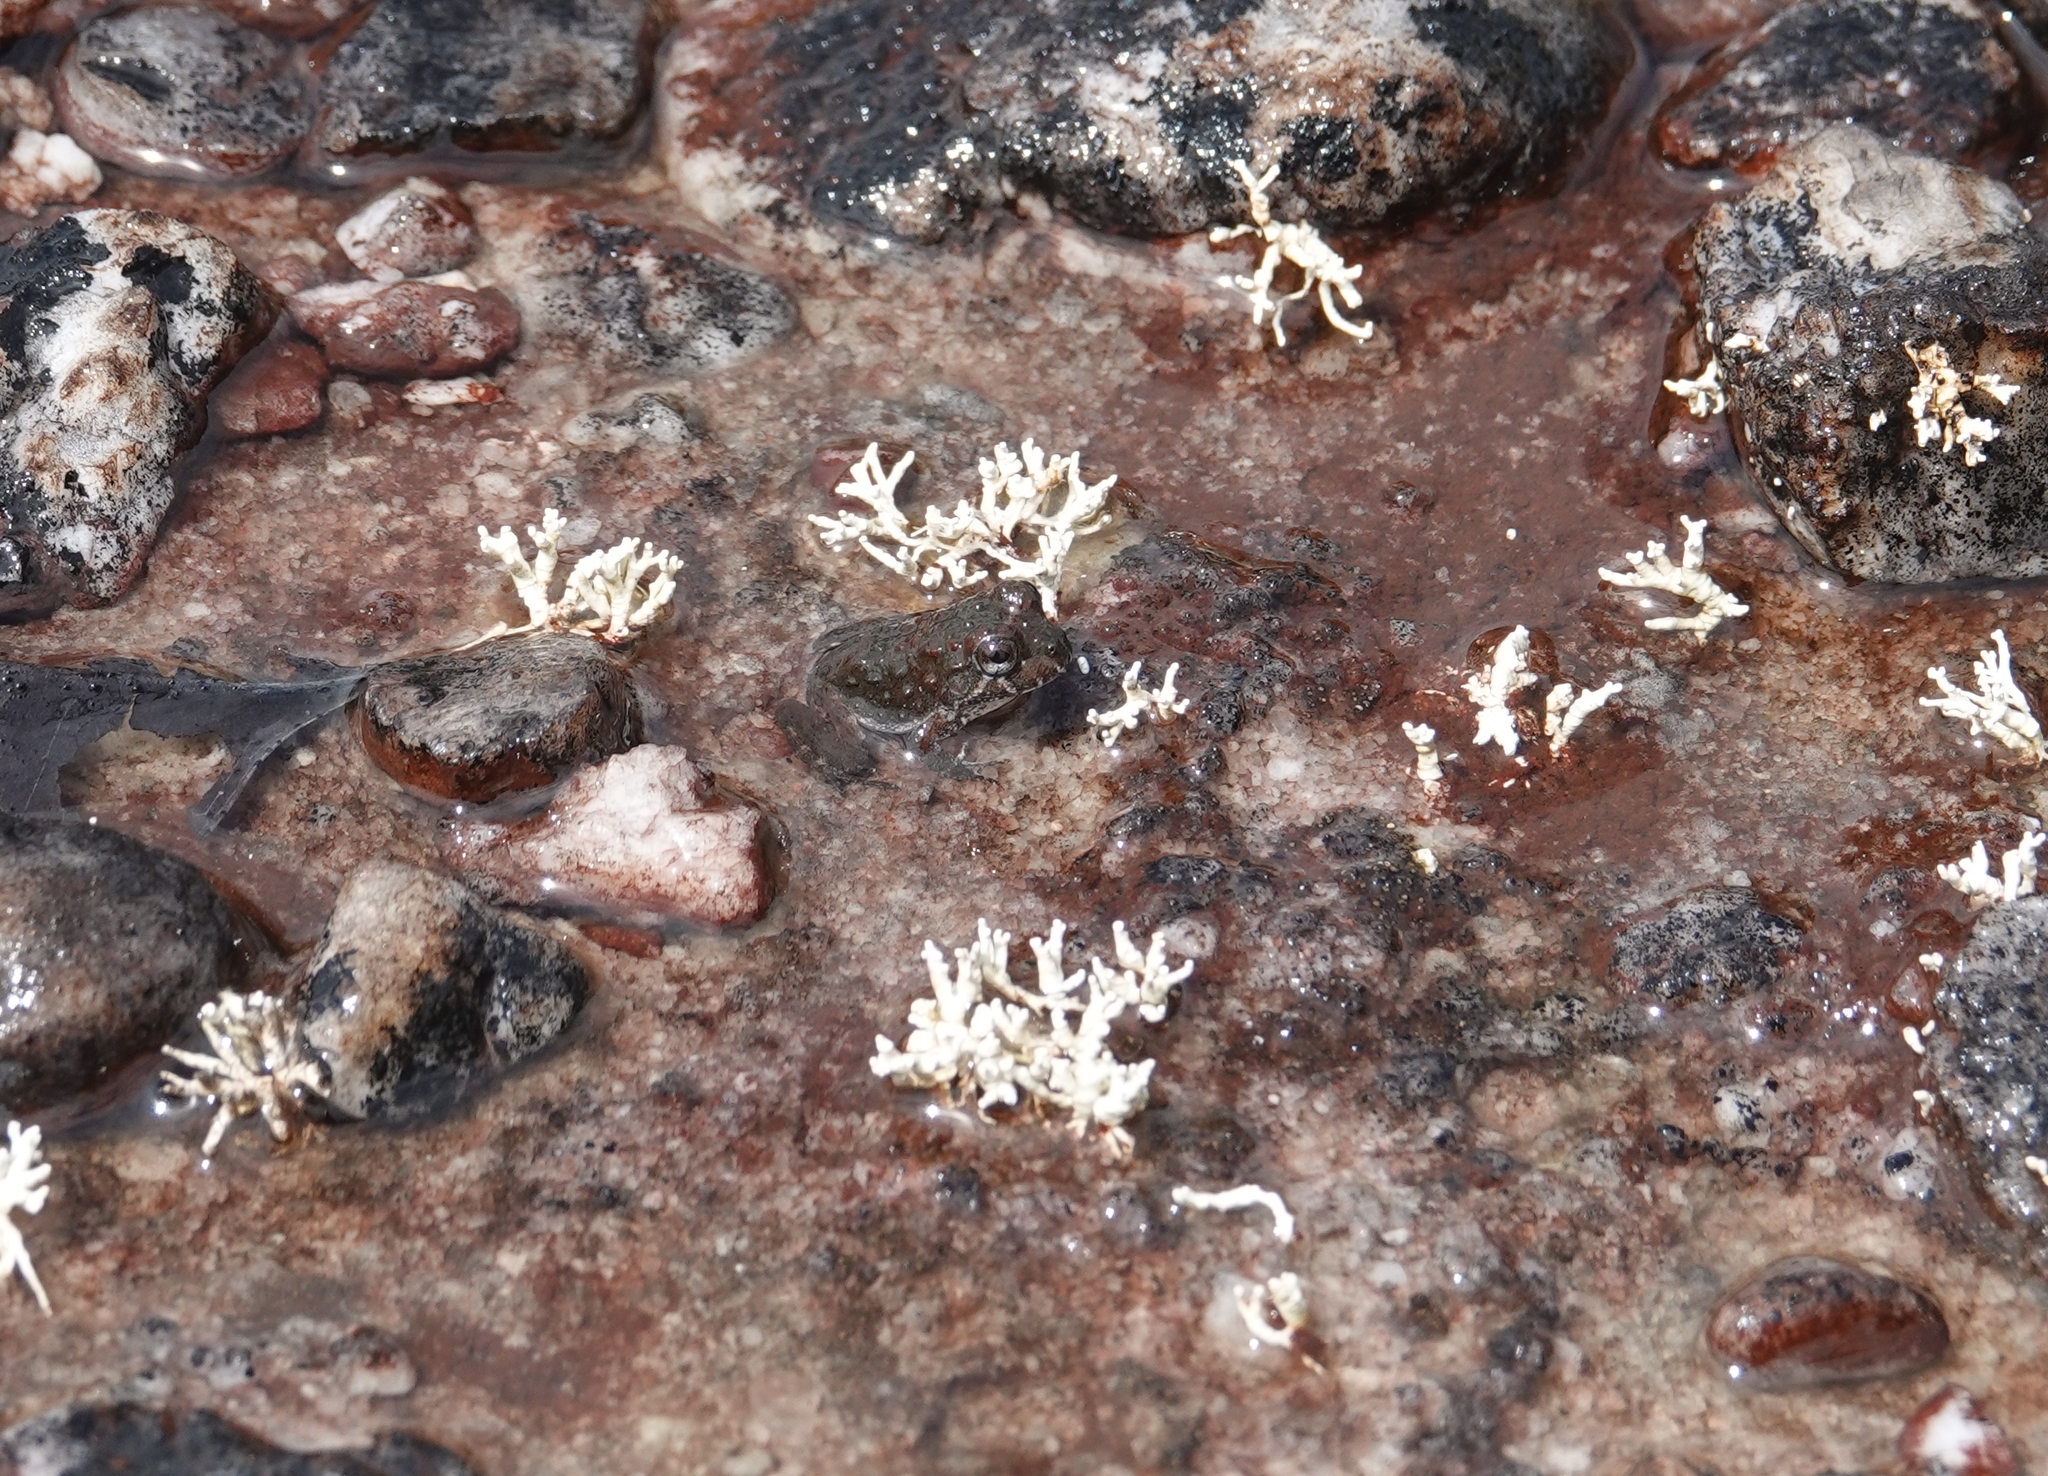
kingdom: Animalia
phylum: Chordata
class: Amphibia
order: Anura
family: Leptodactylidae
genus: Leptodactylus
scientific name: Leptodactylus rugosus
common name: Guyana white-lipped frog
